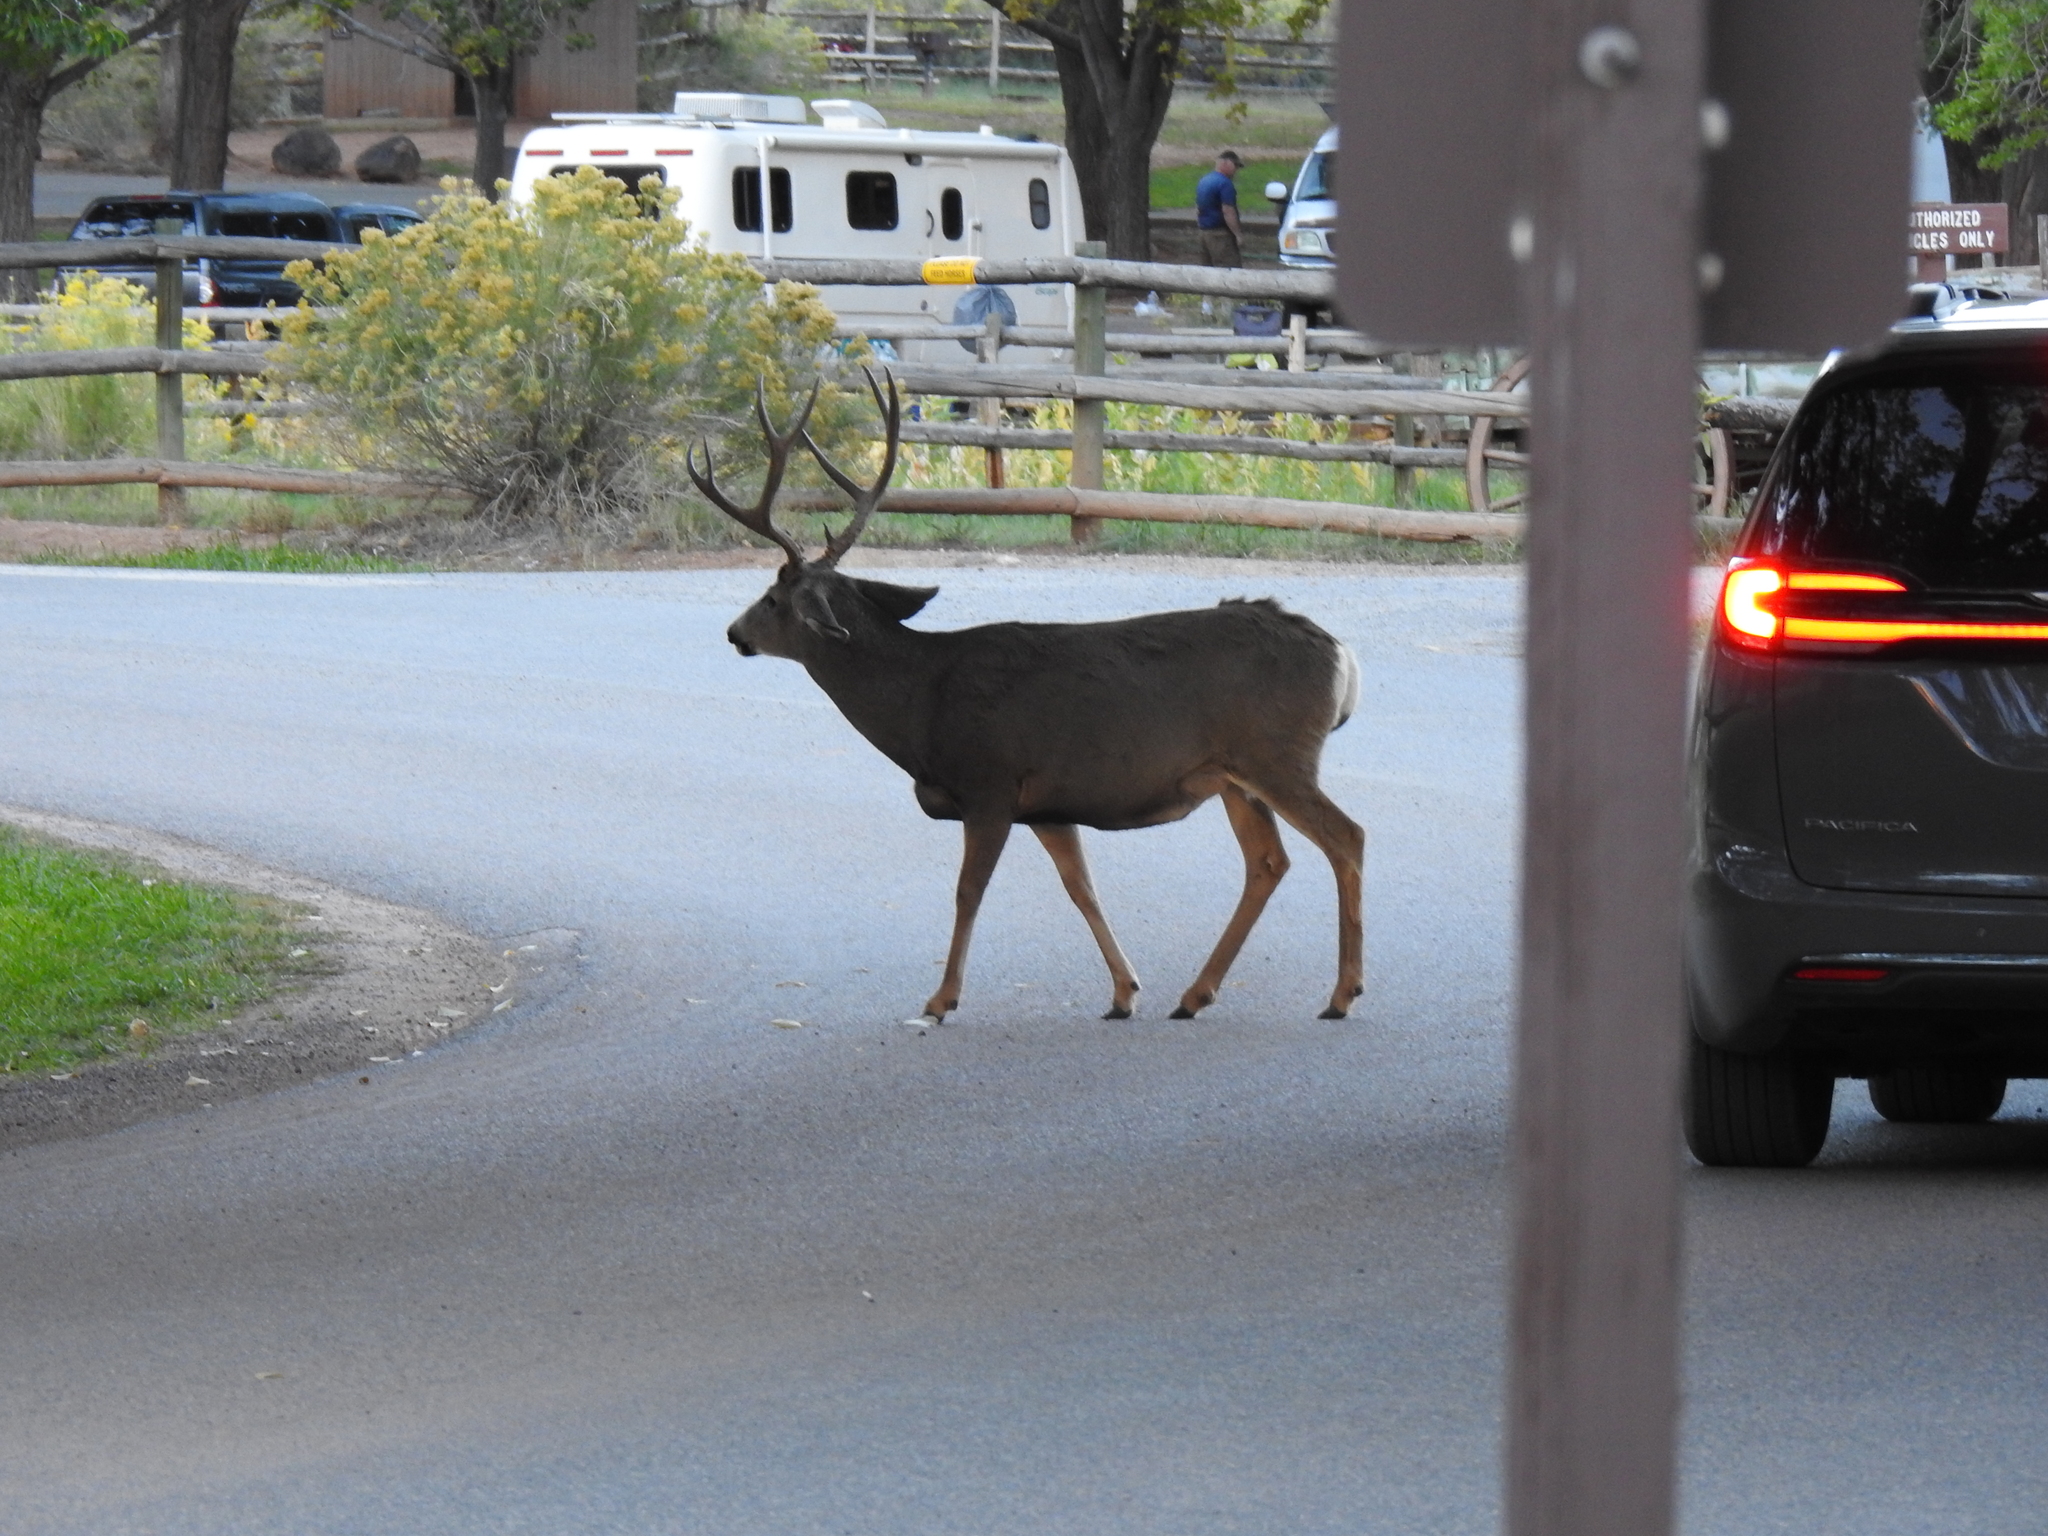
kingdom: Animalia
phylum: Chordata
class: Mammalia
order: Artiodactyla
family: Cervidae
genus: Odocoileus
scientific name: Odocoileus hemionus
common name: Mule deer
